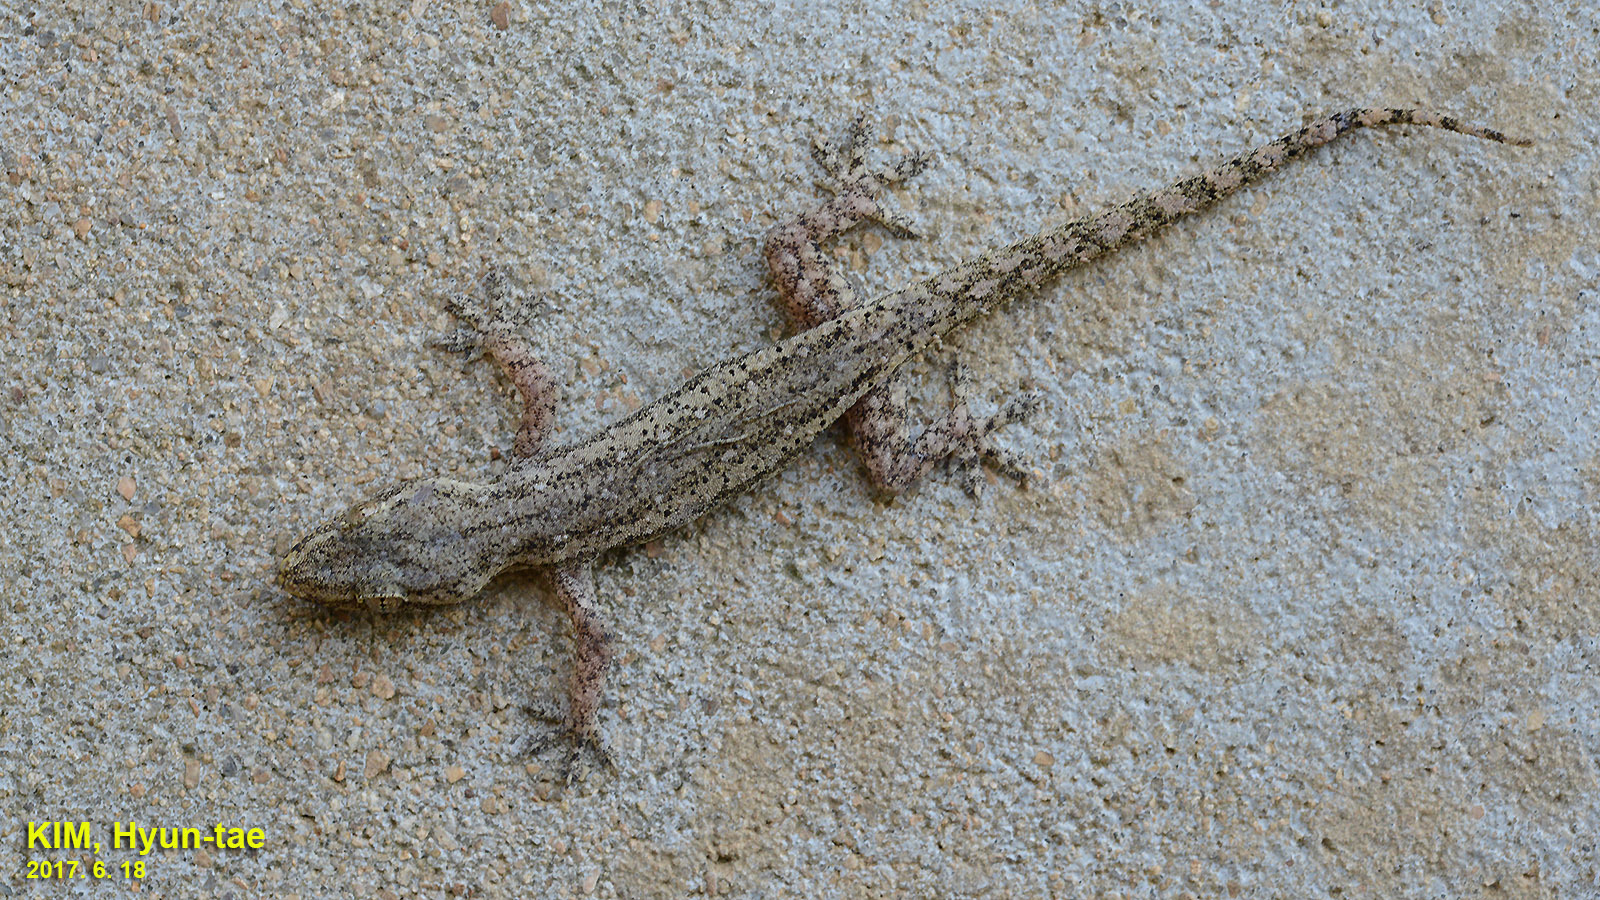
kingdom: Animalia
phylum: Chordata
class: Squamata
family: Gekkonidae
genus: Hemidactylus
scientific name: Hemidactylus frenatus
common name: Common house gecko
